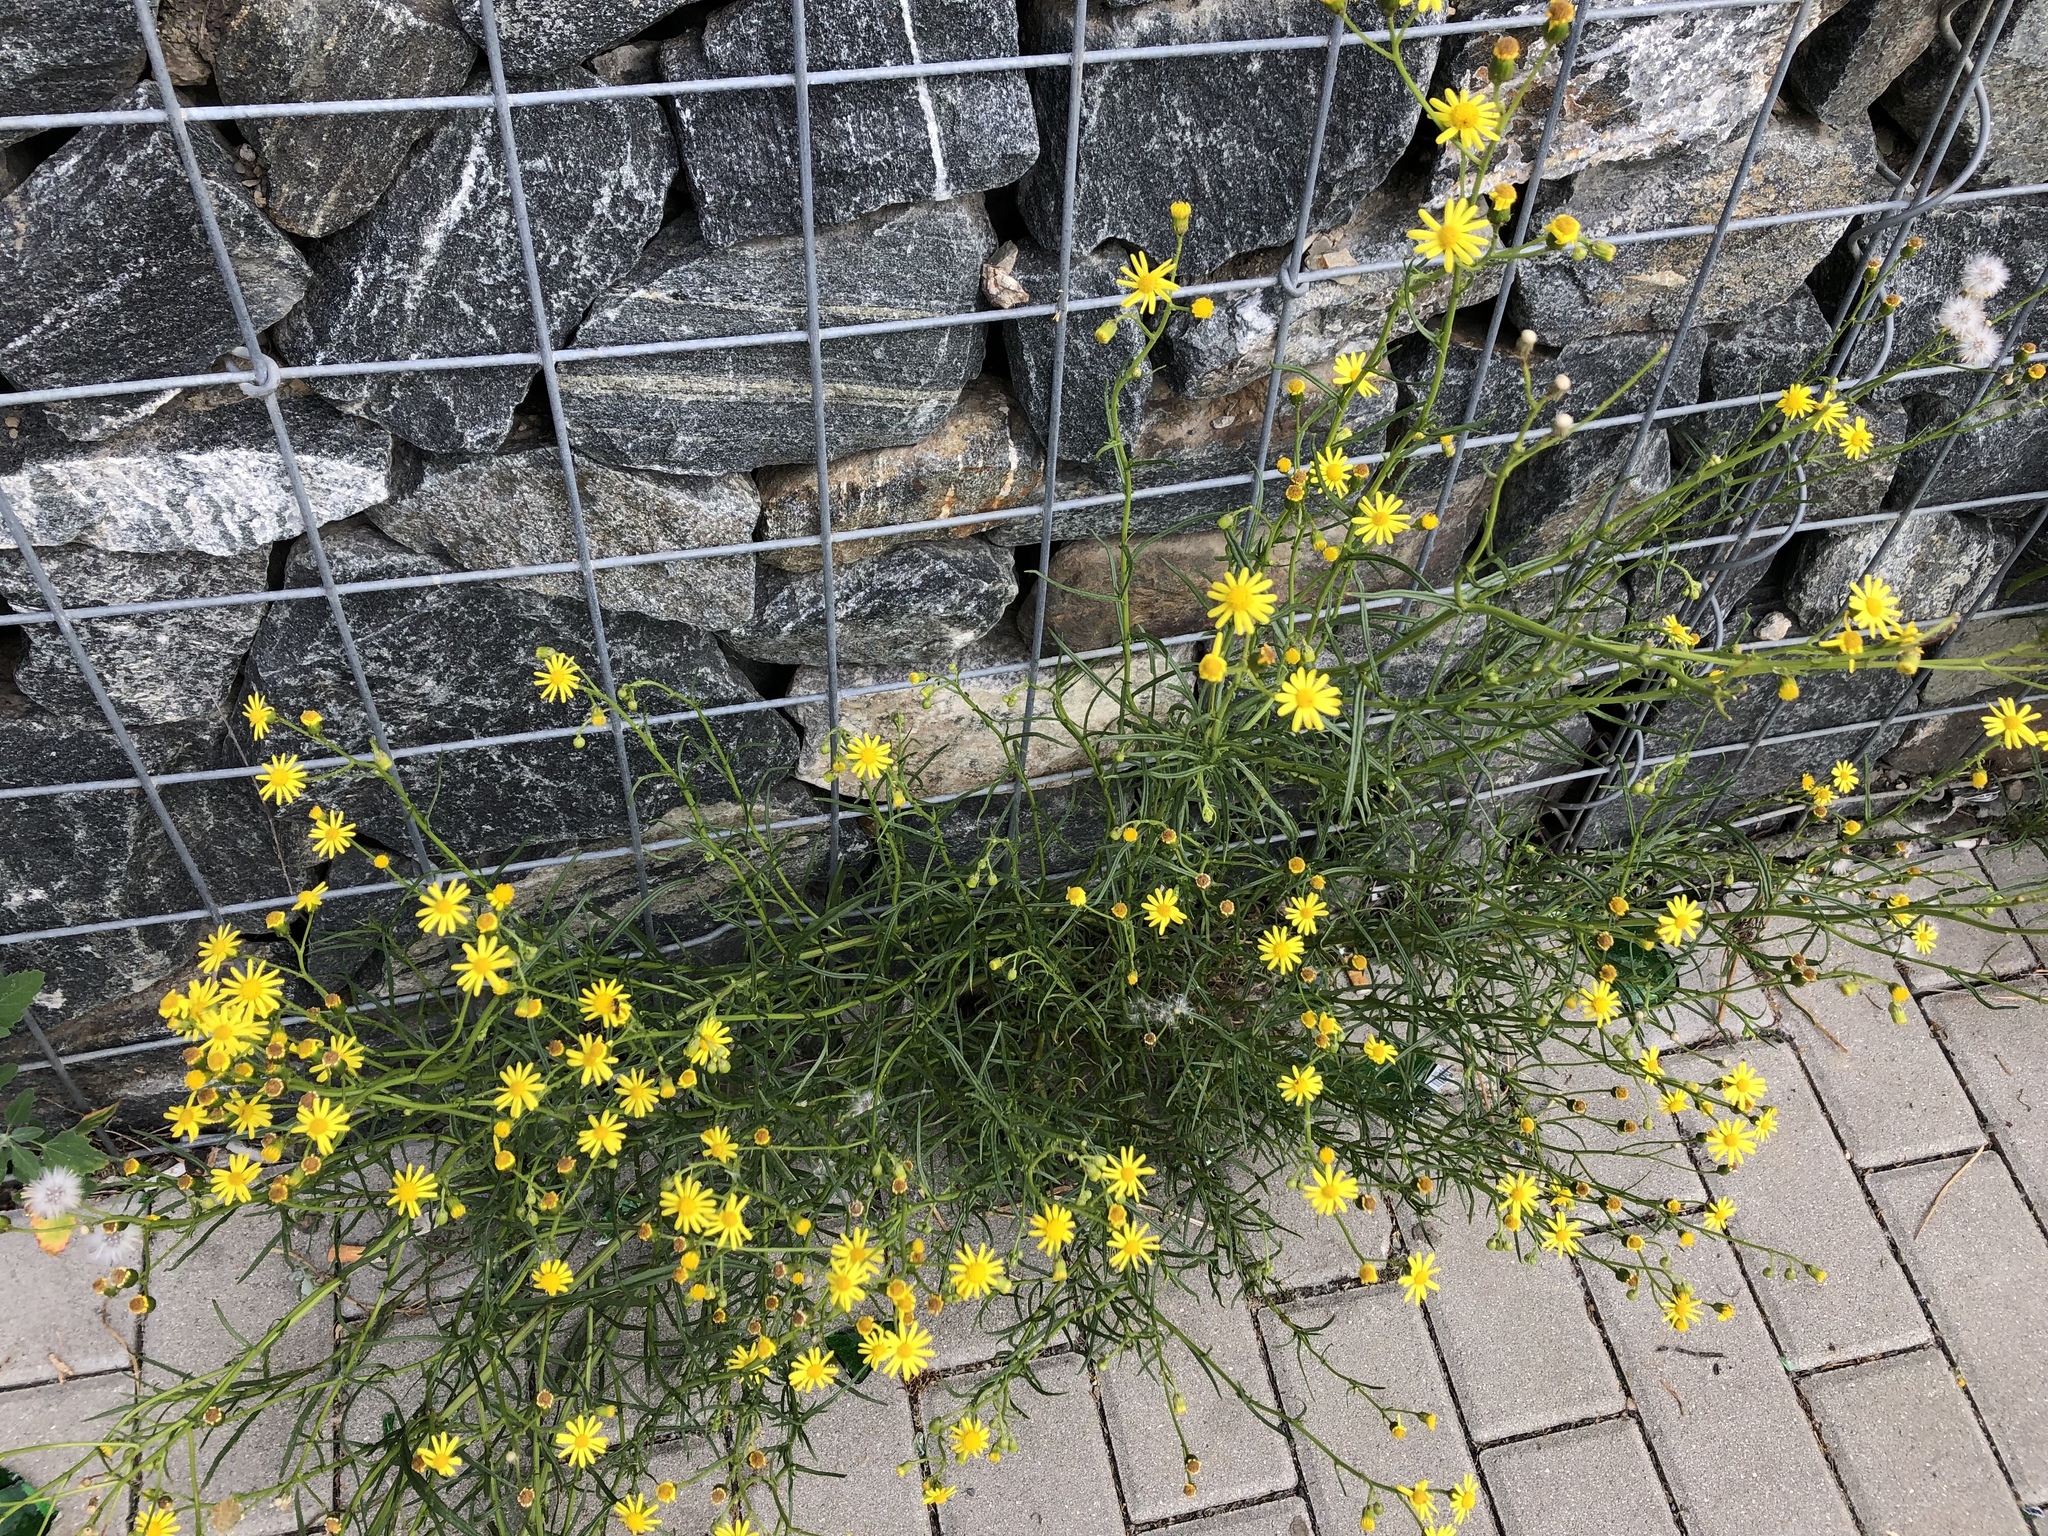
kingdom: Plantae
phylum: Tracheophyta
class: Magnoliopsida
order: Asterales
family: Asteraceae
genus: Senecio
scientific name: Senecio inaequidens
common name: Narrow-leaved ragwort
